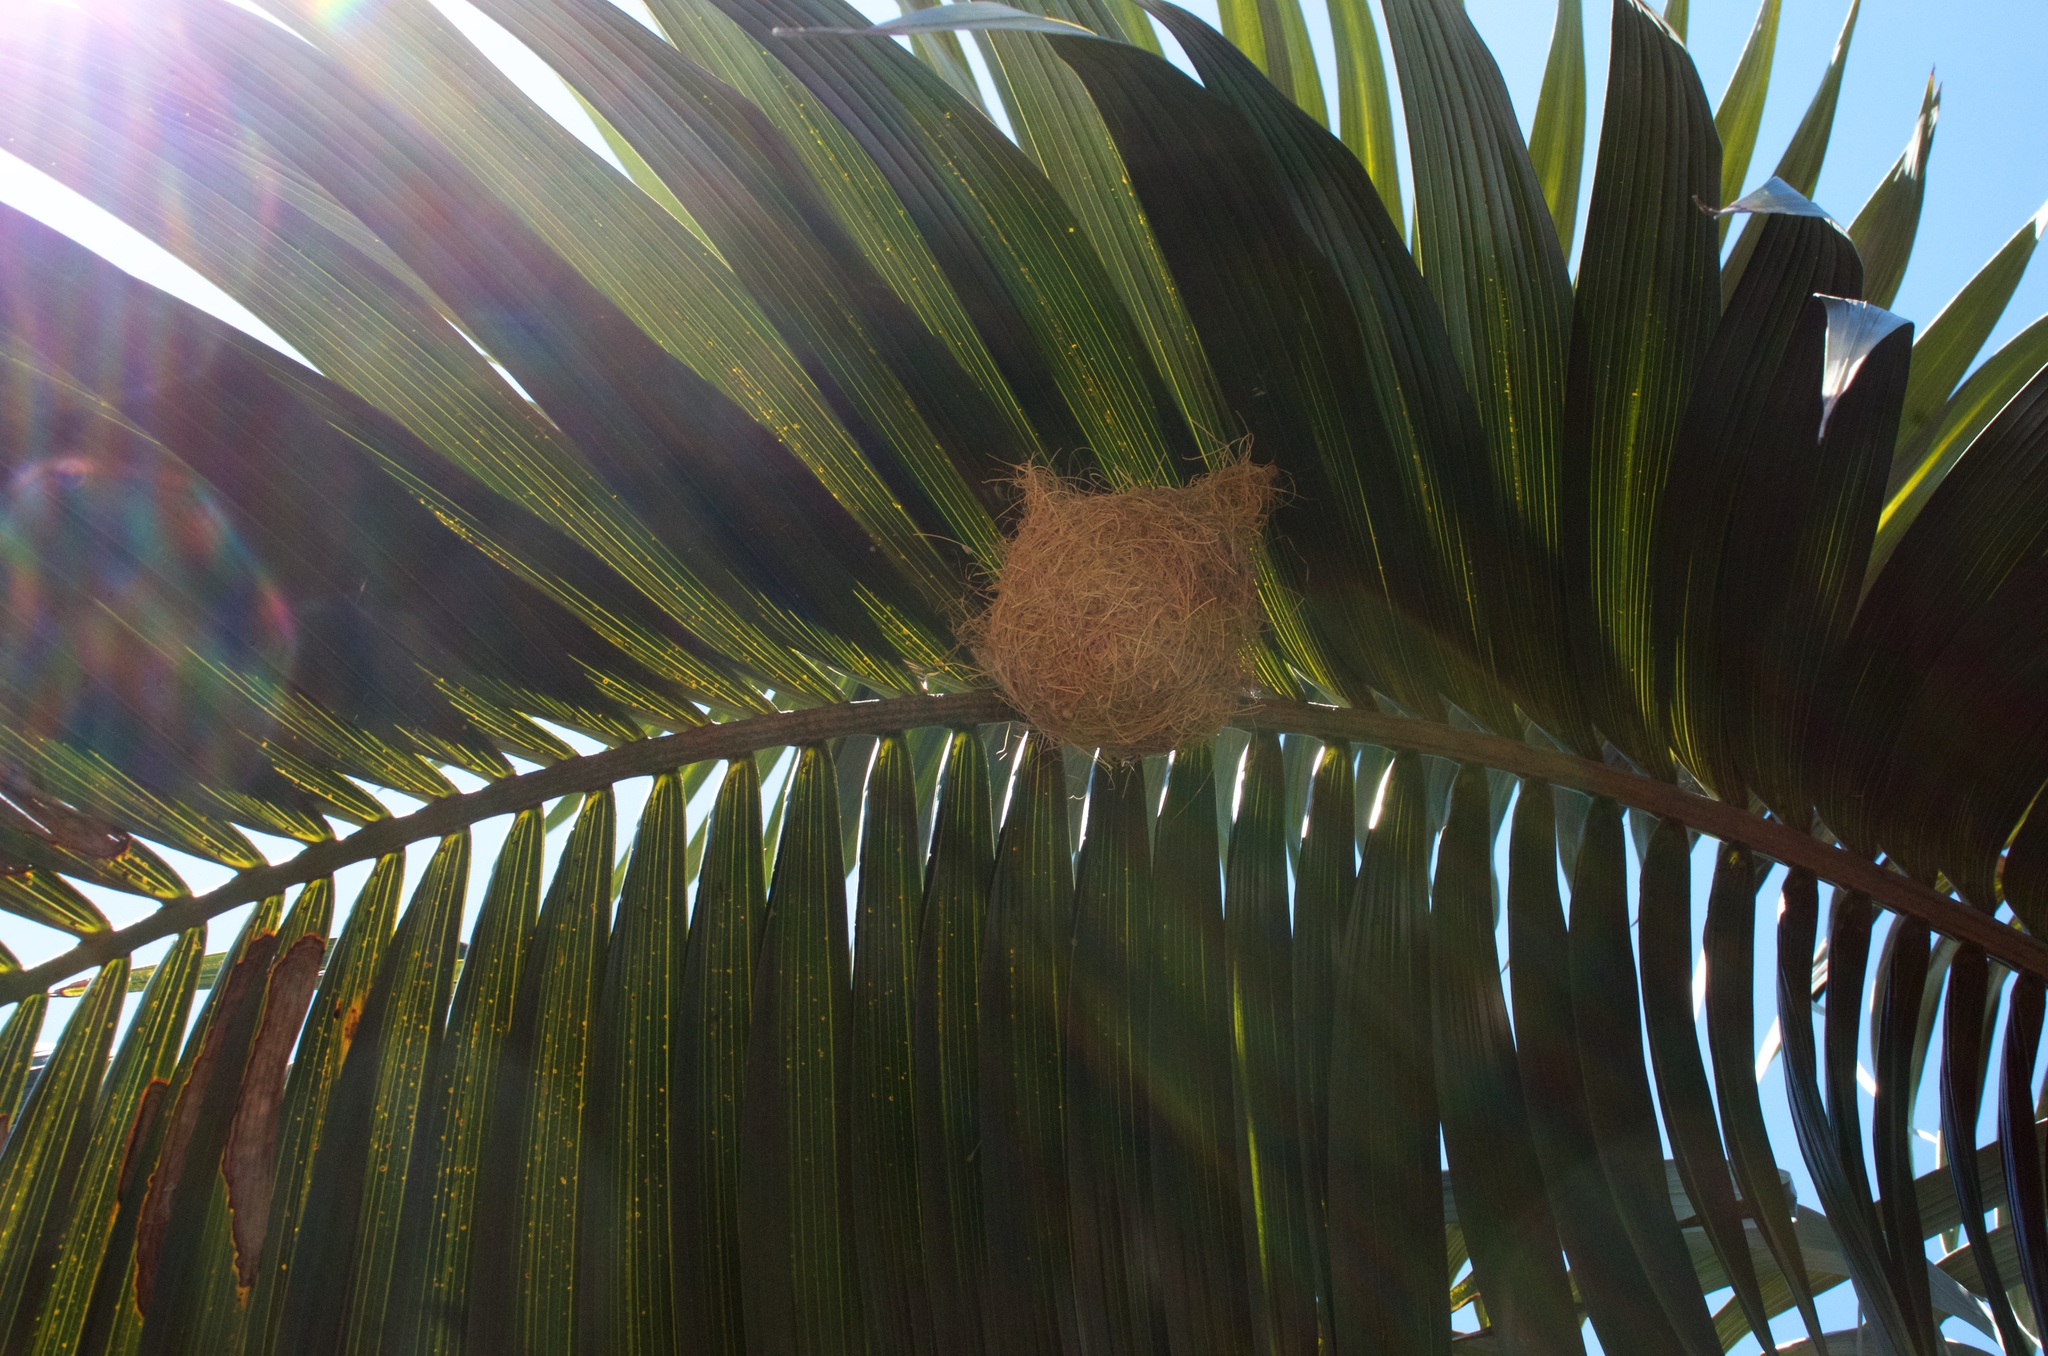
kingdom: Animalia
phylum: Chordata
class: Aves
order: Passeriformes
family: Icteridae
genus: Icterus
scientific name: Icterus cucullatus
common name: Hooded oriole
